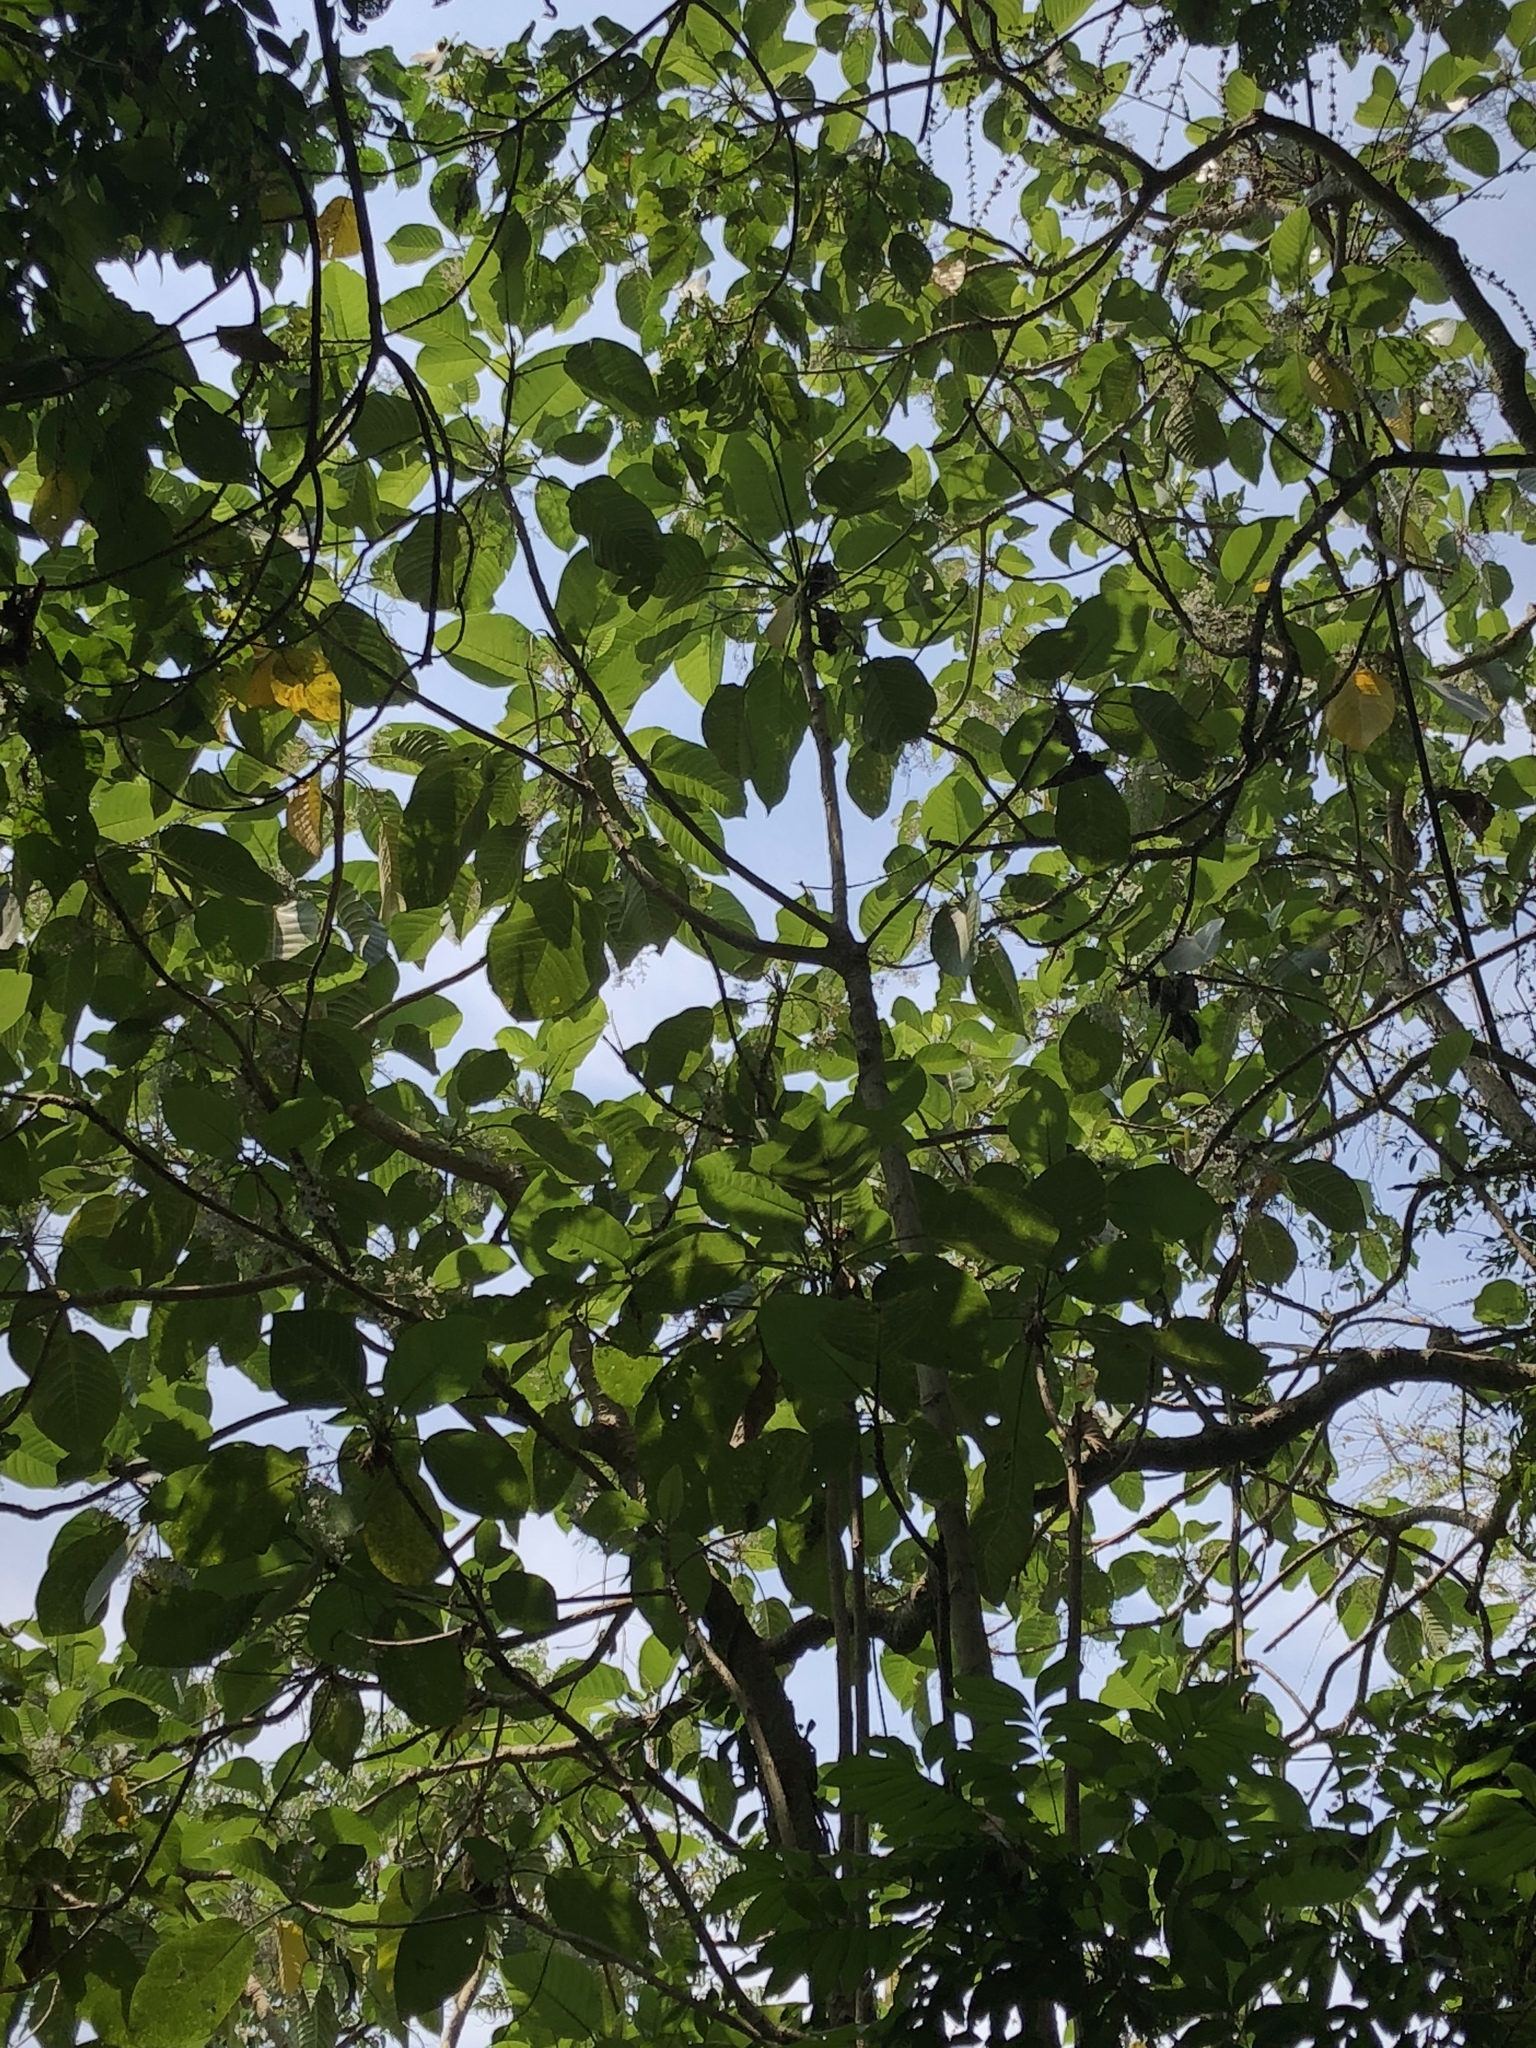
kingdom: Plantae
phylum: Tracheophyta
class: Magnoliopsida
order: Rosales
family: Urticaceae
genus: Dendrocnide
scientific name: Dendrocnide meyeniana
